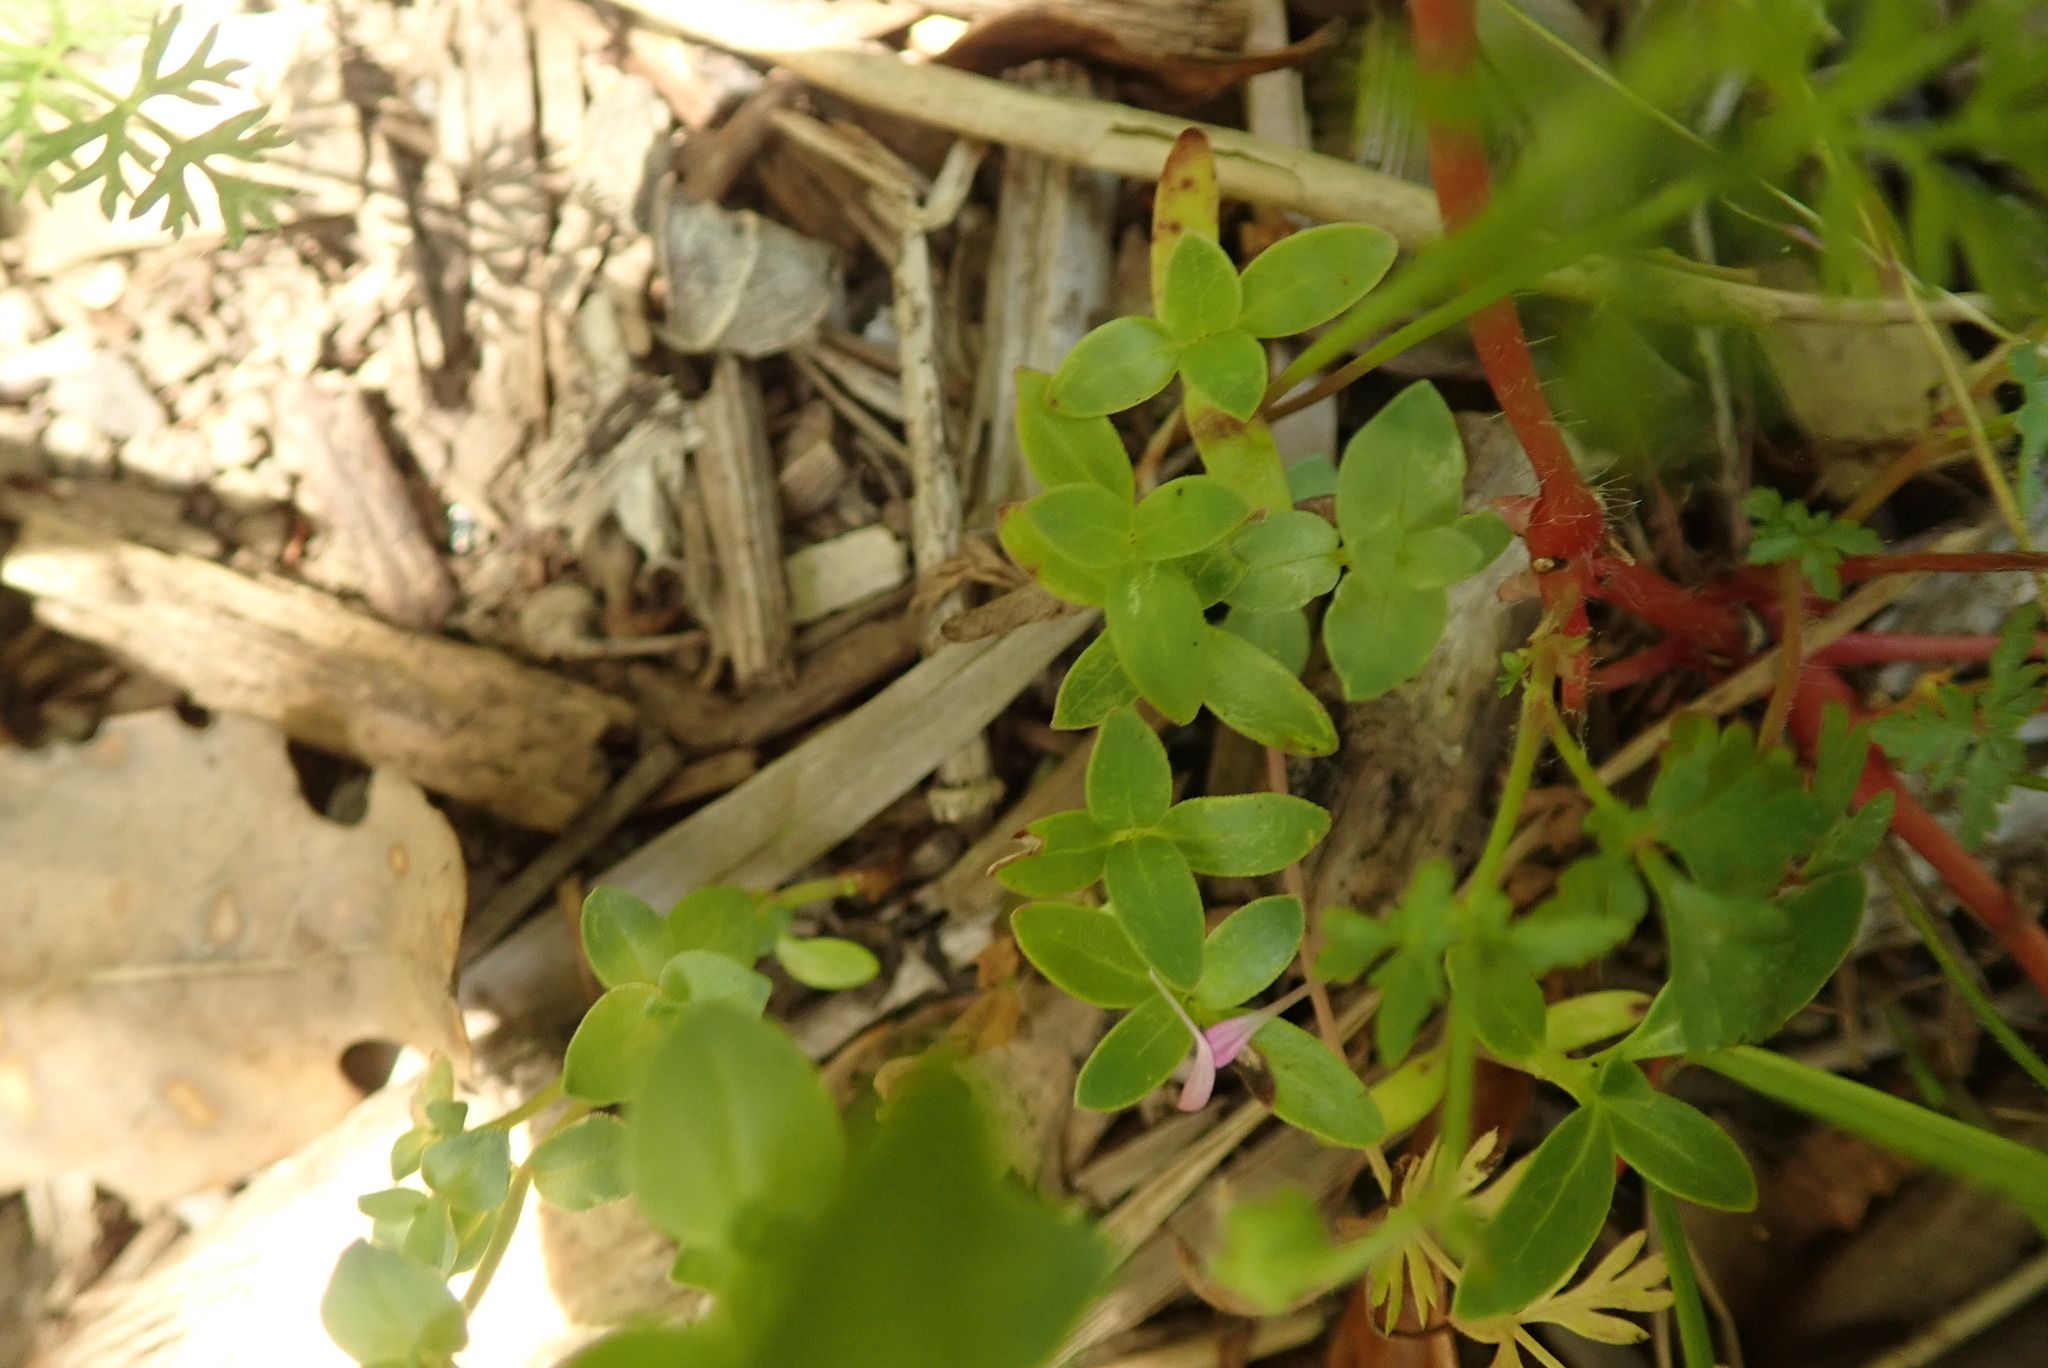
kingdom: Plantae
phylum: Tracheophyta
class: Magnoliopsida
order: Gentianales
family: Rubiaceae
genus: Coprosma
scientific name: Coprosma robusta
